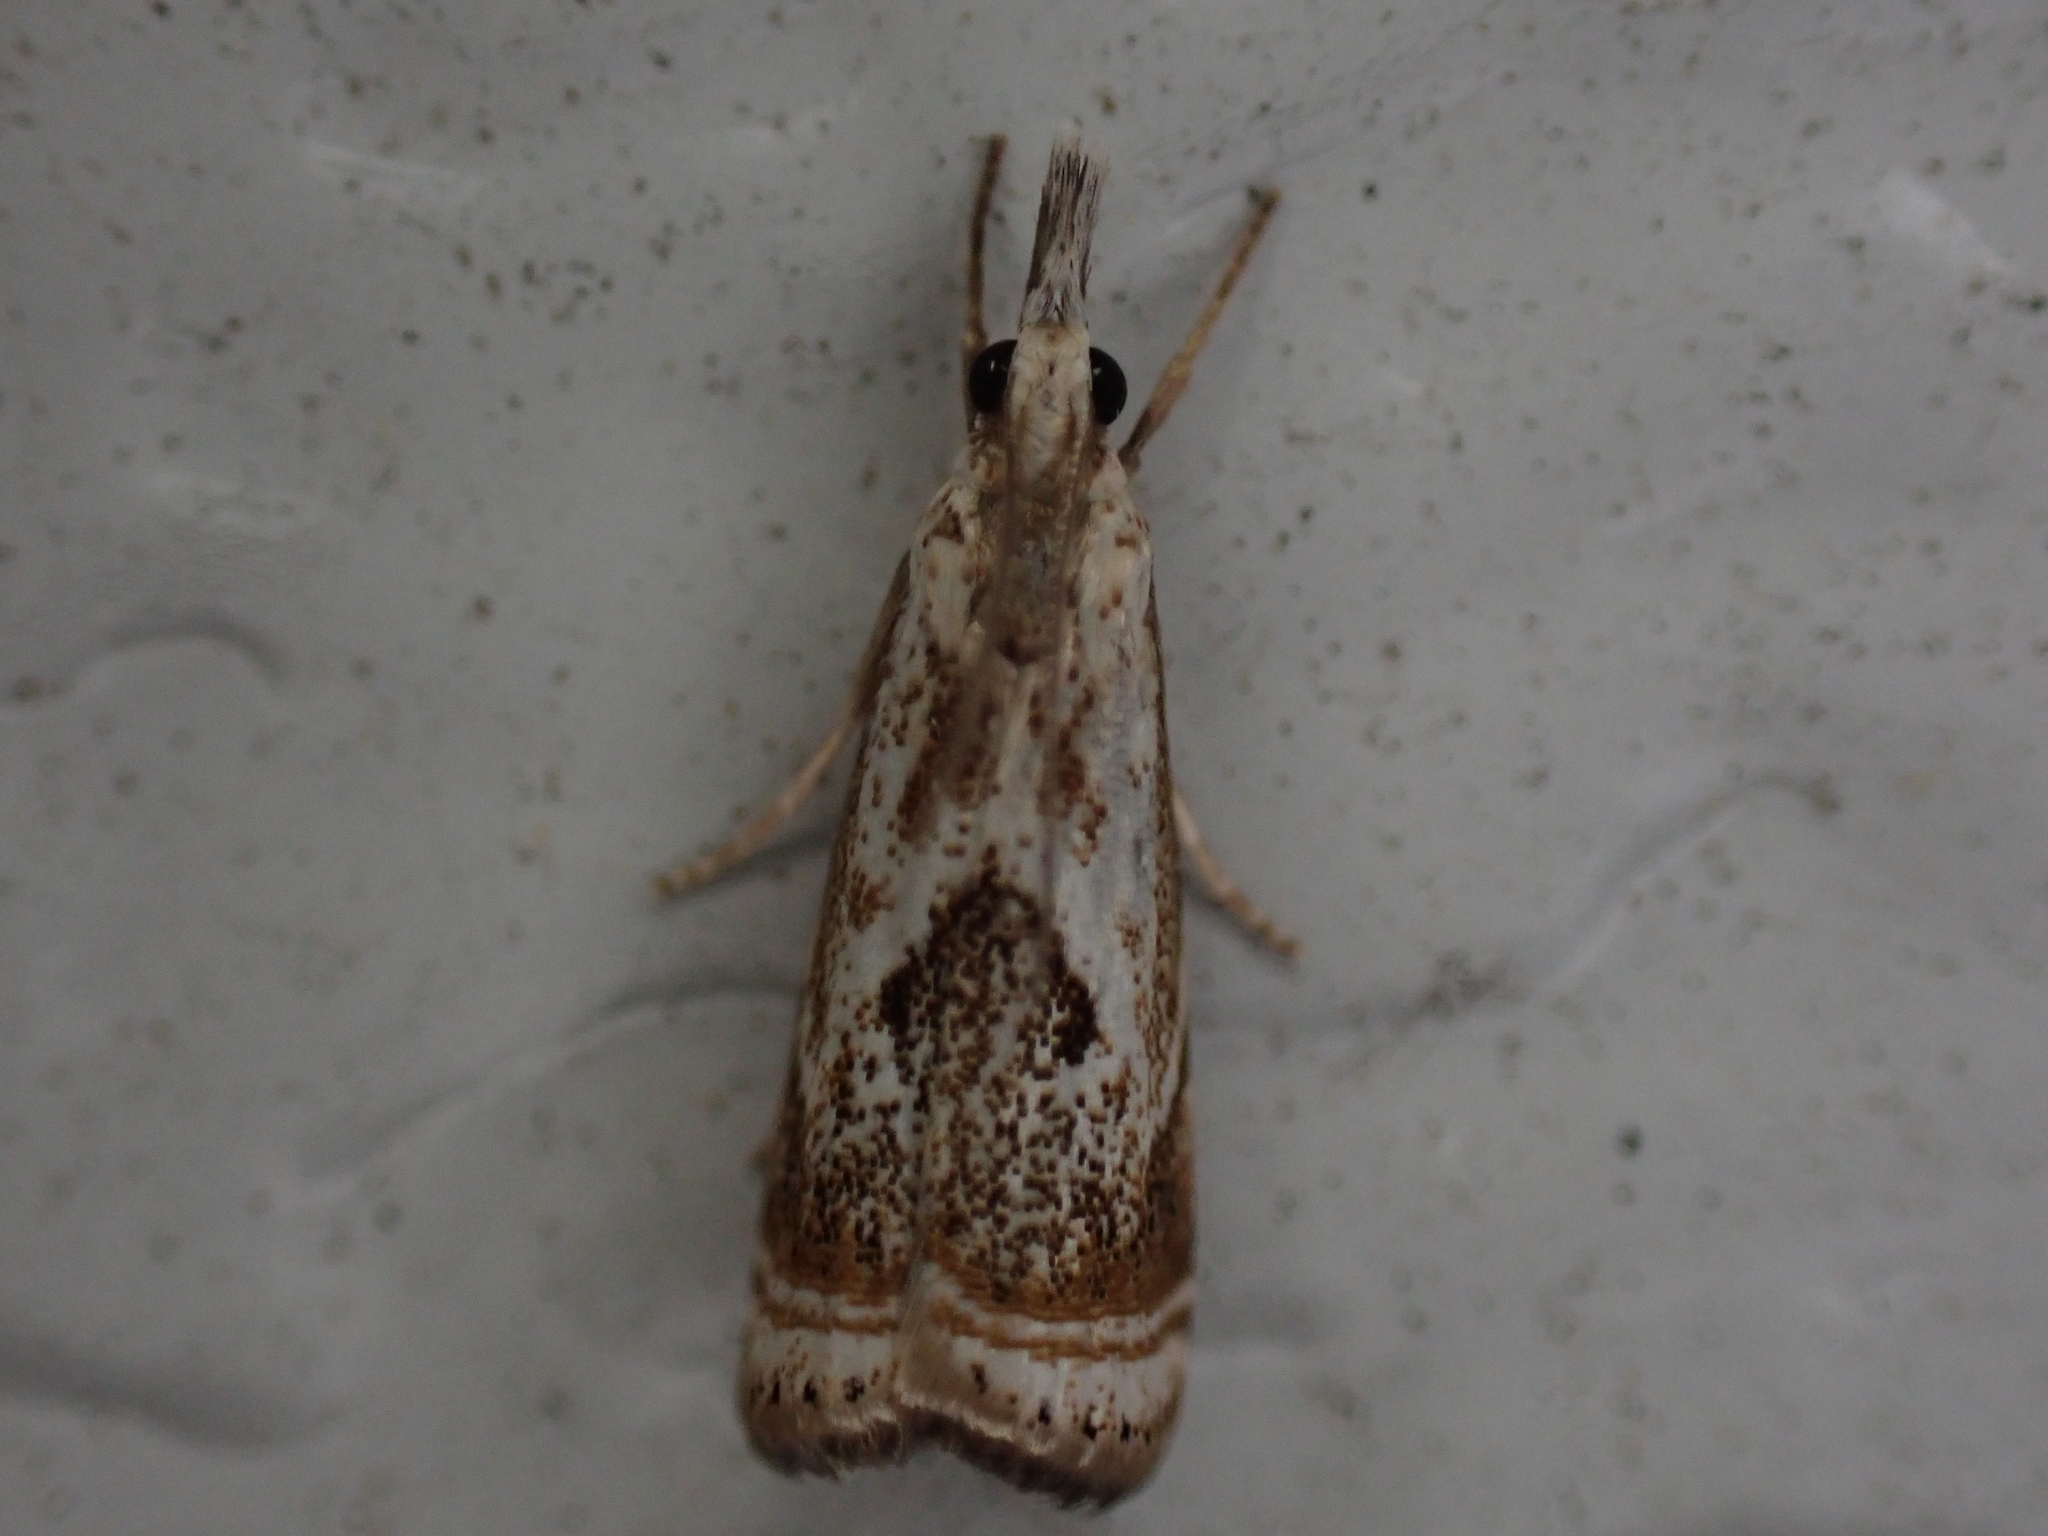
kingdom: Animalia
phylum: Arthropoda
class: Insecta
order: Lepidoptera
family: Crambidae
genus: Microcrambus
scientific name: Microcrambus elegans
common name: Elegant grass-veneer
